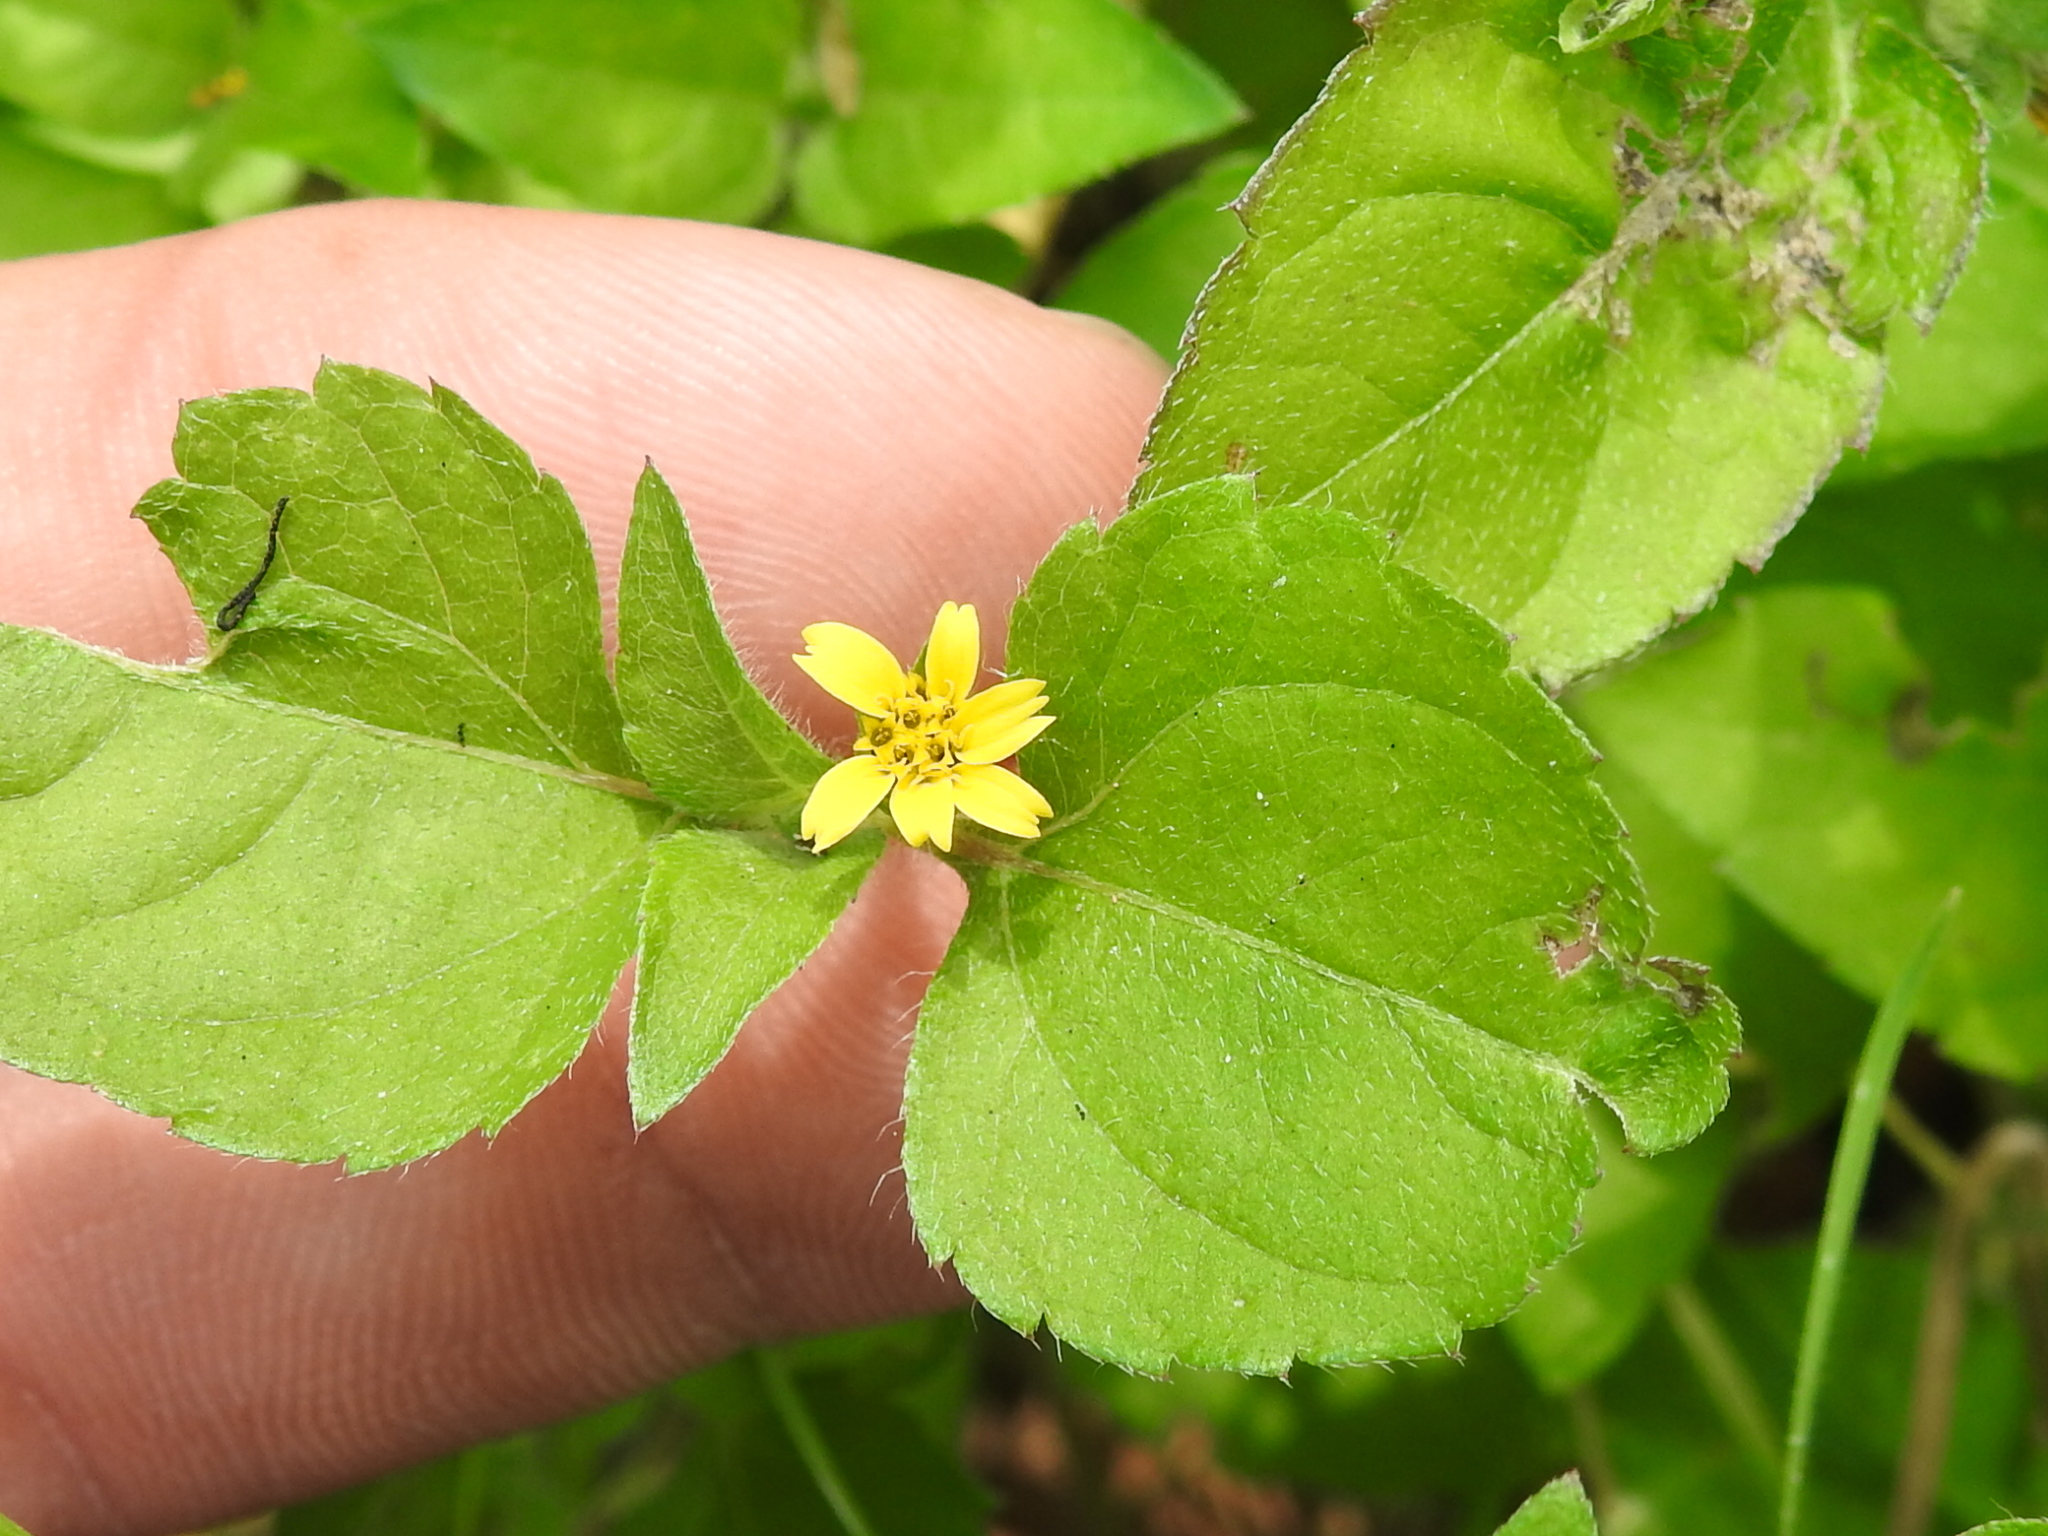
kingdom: Plantae
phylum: Tracheophyta
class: Magnoliopsida
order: Asterales
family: Asteraceae
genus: Calyptocarpus
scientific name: Calyptocarpus vialis
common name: Straggler daisy
